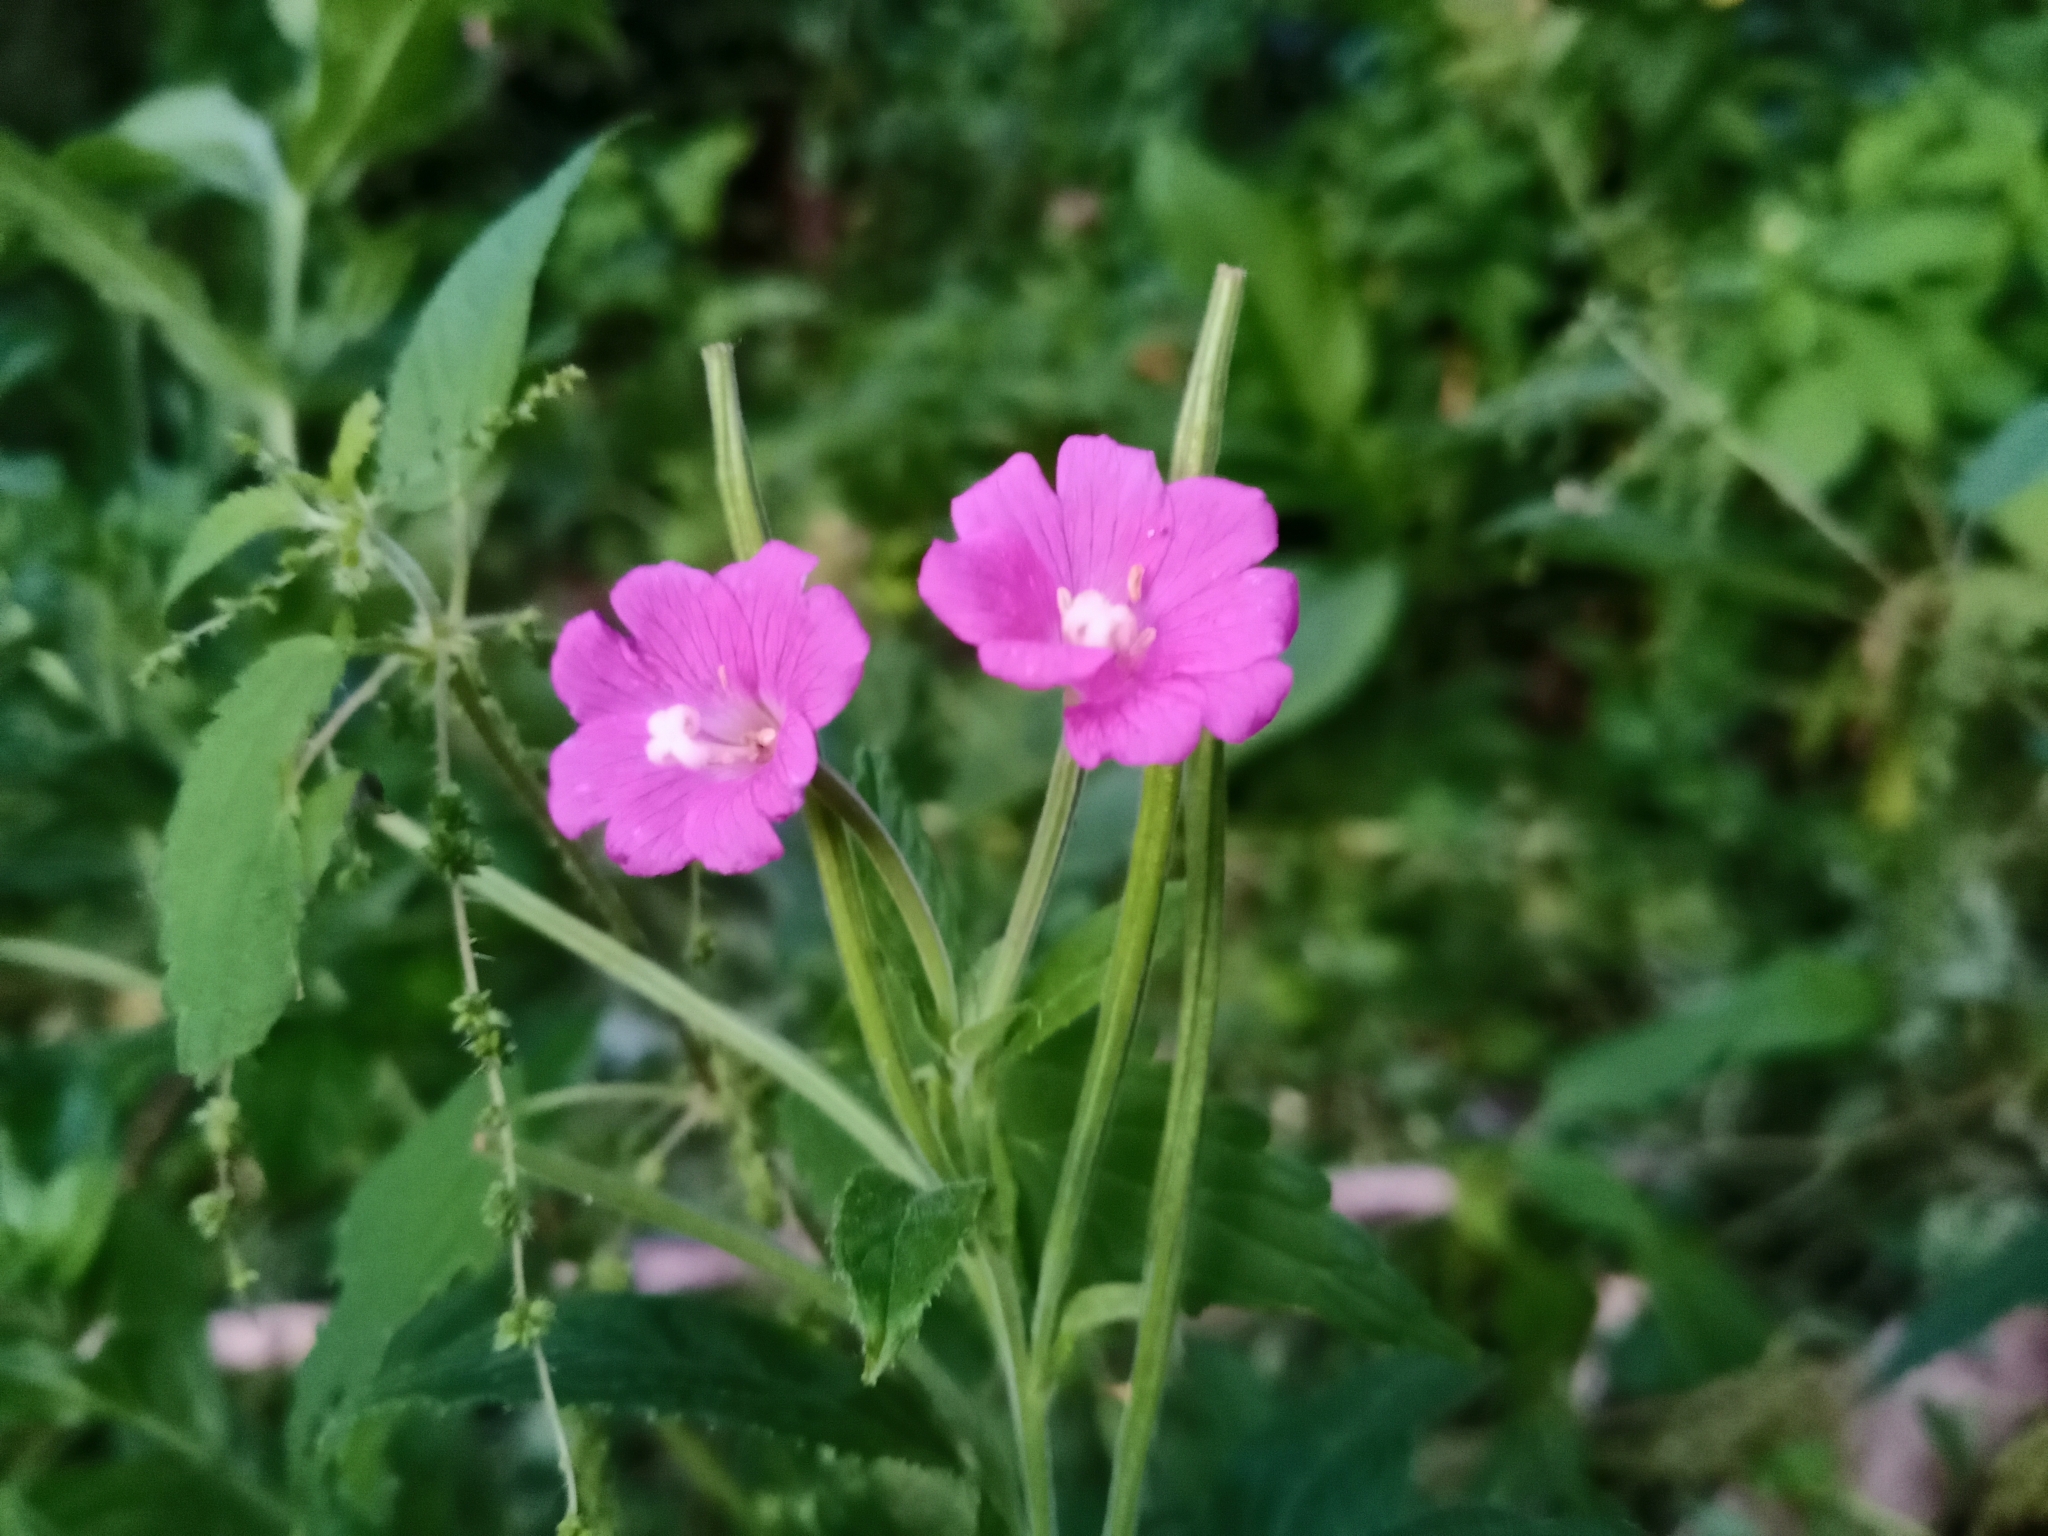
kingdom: Plantae
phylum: Tracheophyta
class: Magnoliopsida
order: Myrtales
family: Onagraceae
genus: Epilobium
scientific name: Epilobium hirsutum
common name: Great willowherb
